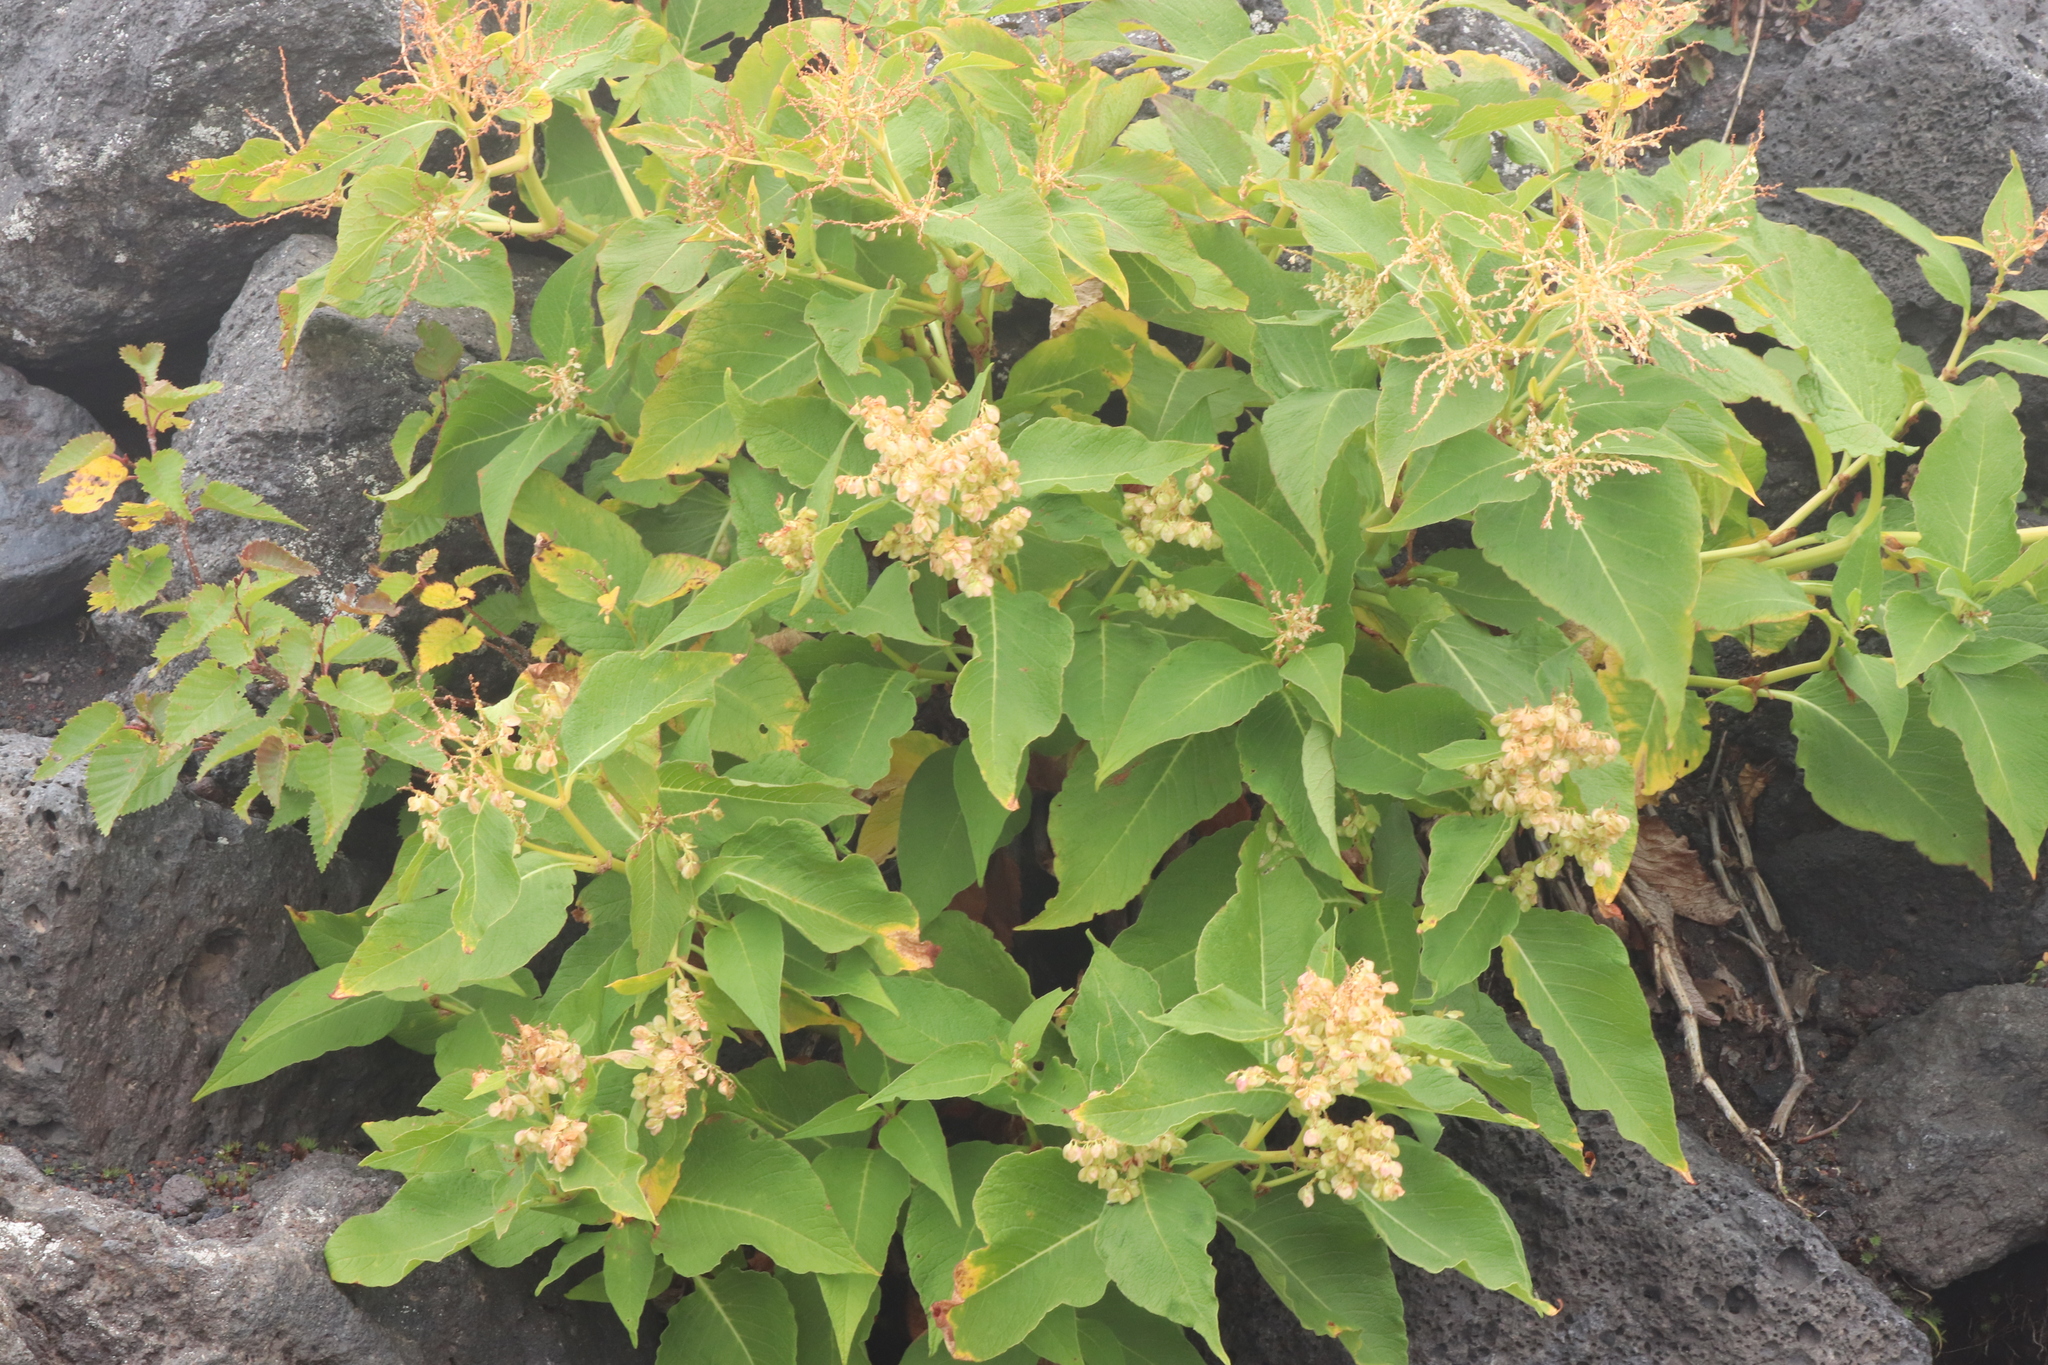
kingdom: Plantae
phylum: Tracheophyta
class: Magnoliopsida
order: Caryophyllales
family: Polygonaceae
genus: Koenigia
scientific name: Koenigia weyrichii
